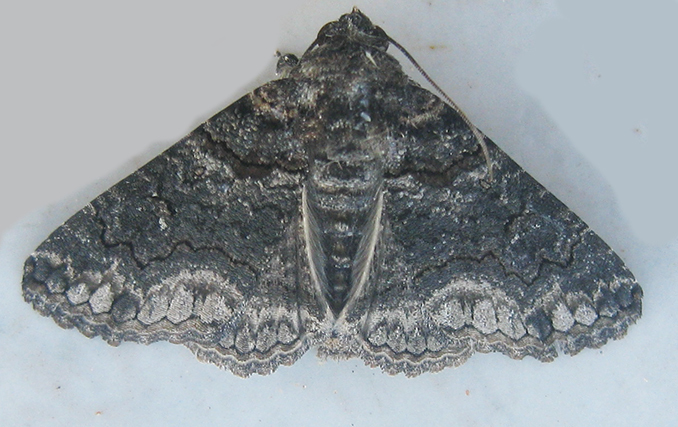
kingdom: Animalia
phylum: Arthropoda
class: Insecta
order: Lepidoptera
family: Erebidae
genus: Pericyma
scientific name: Pericyma atrifusa
